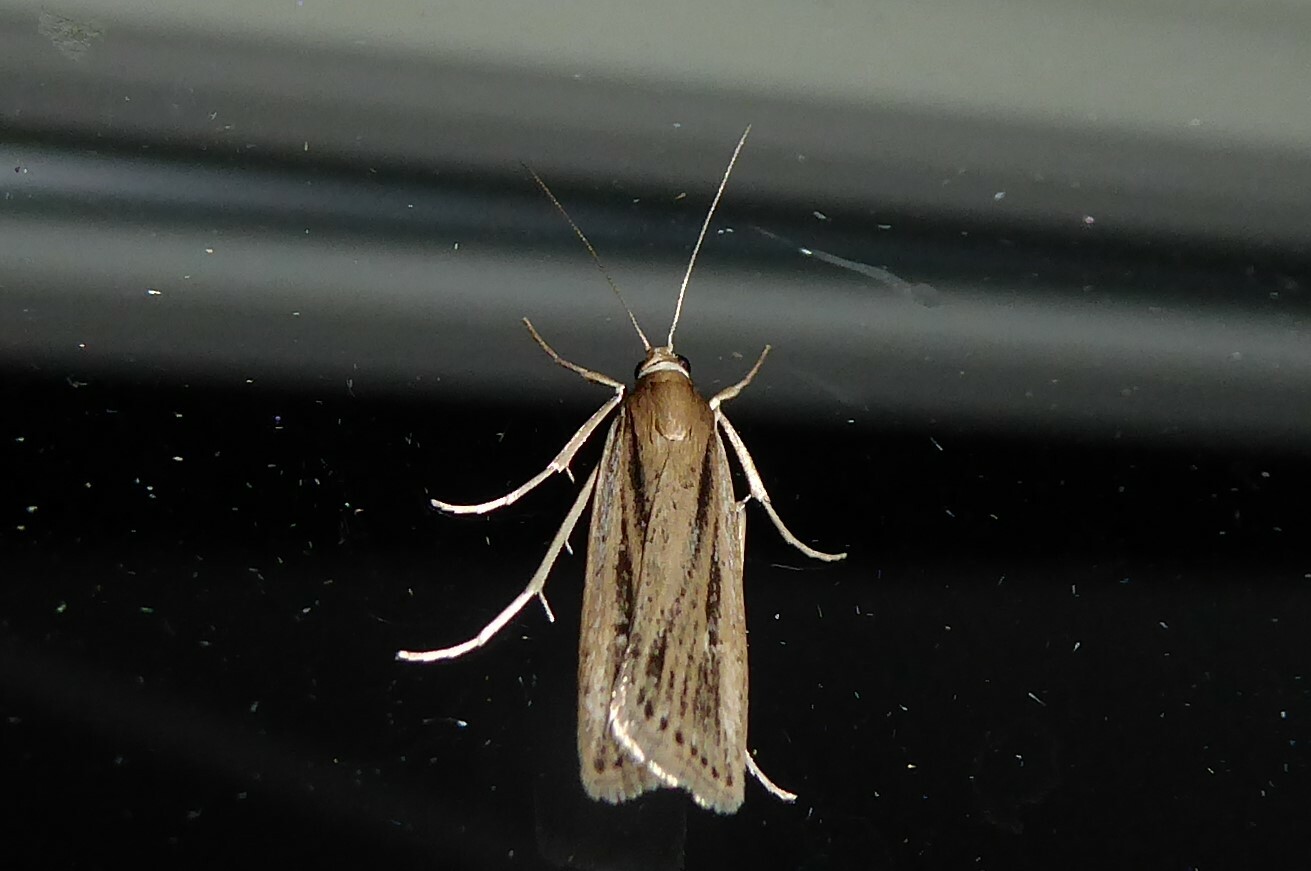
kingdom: Animalia
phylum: Arthropoda
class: Insecta
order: Lepidoptera
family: Crambidae
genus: Eudonia
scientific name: Eudonia sabulosella
